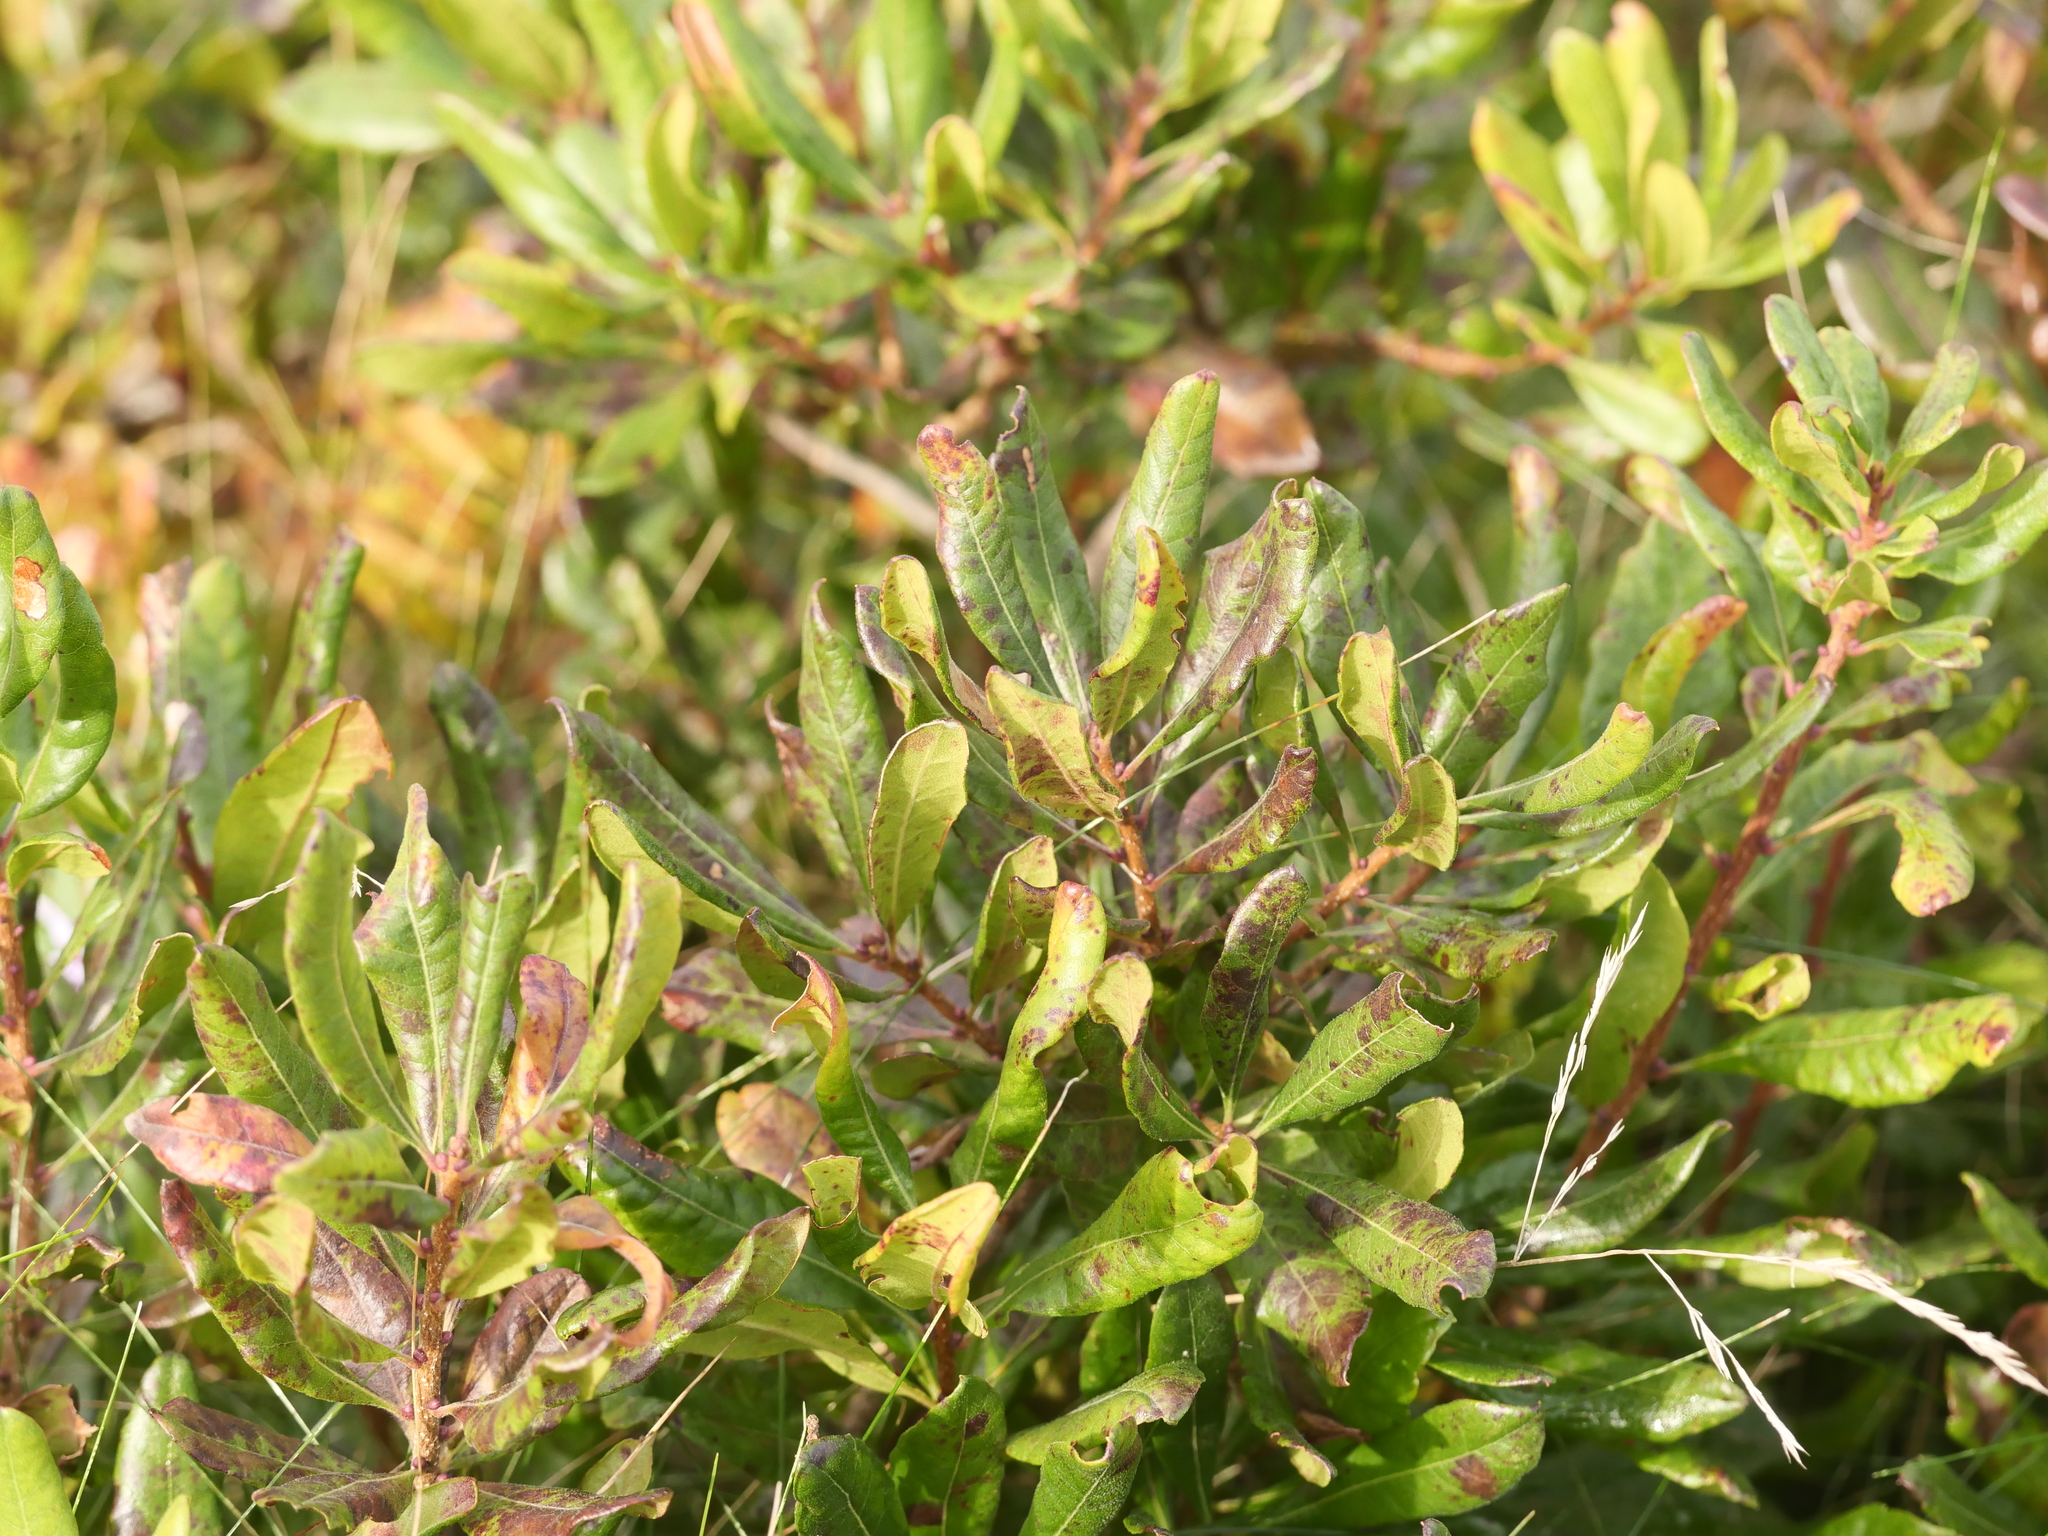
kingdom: Plantae
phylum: Tracheophyta
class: Magnoliopsida
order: Fagales
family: Myricaceae
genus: Morella
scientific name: Morella pensylvanica
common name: Northern bayberry
